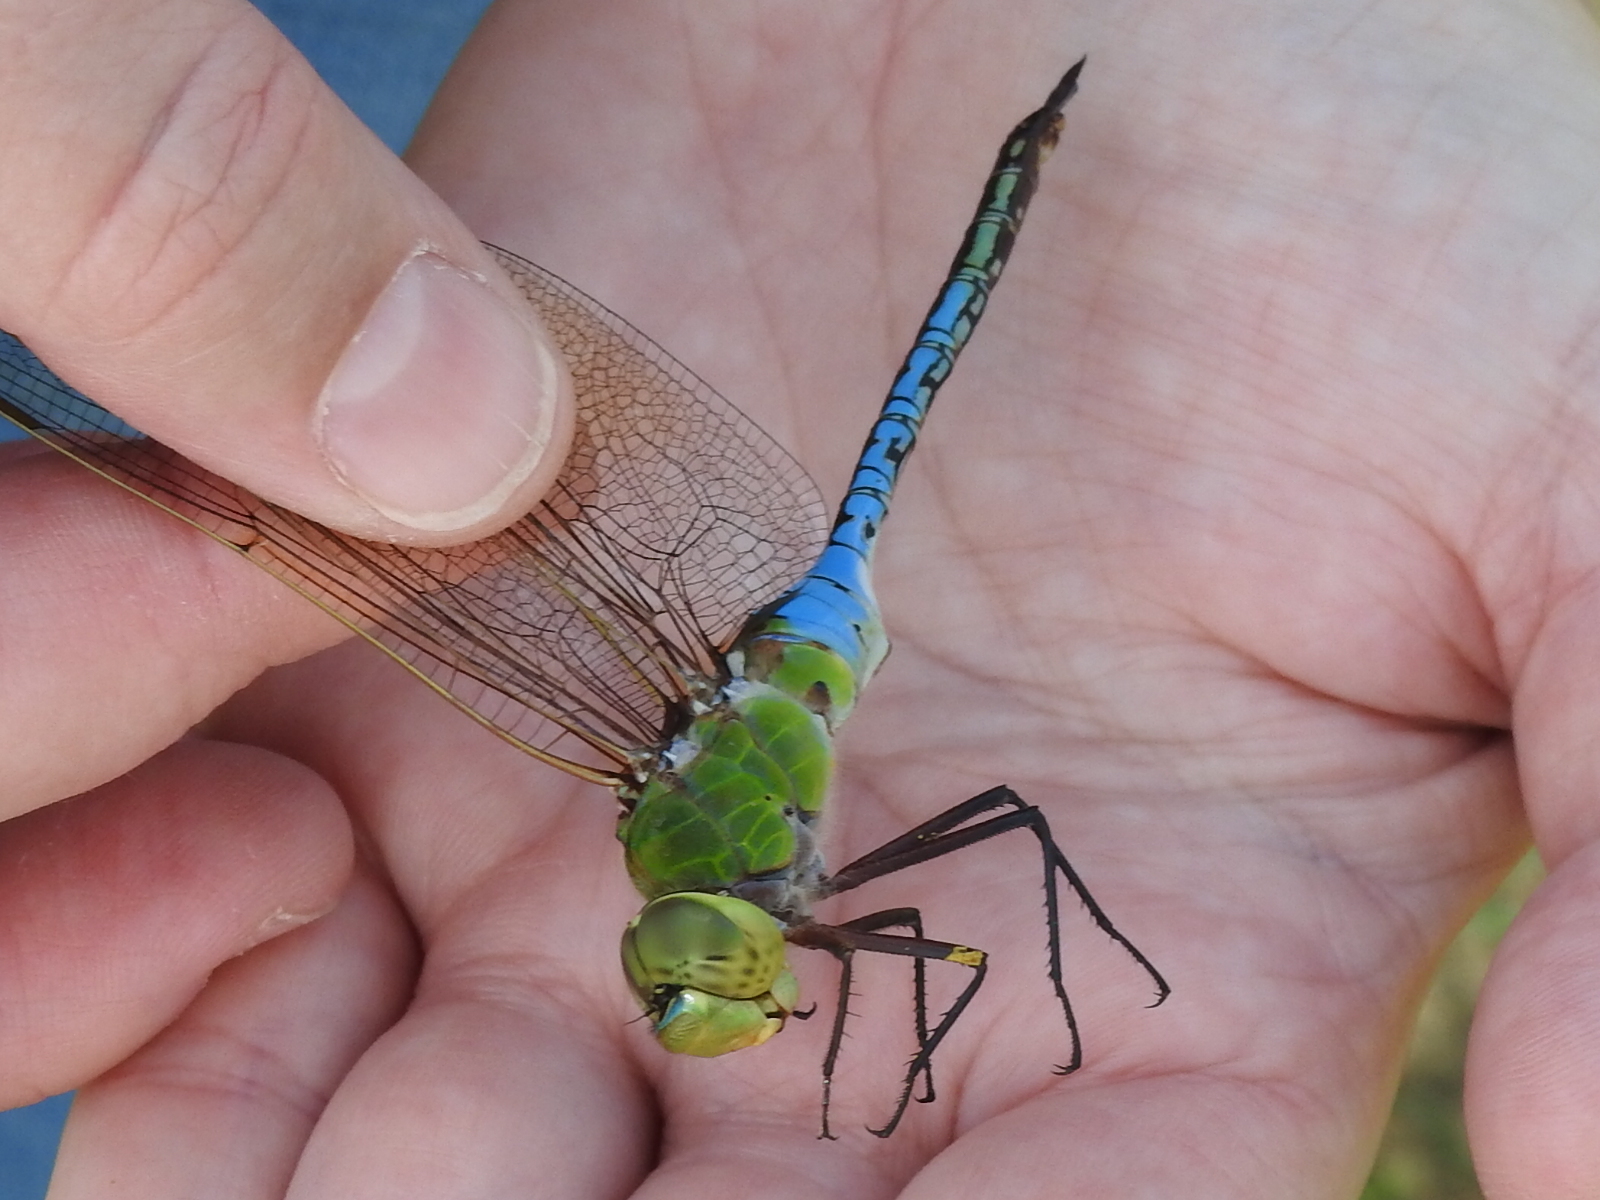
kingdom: Animalia
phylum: Arthropoda
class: Insecta
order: Odonata
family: Aeshnidae
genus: Anax
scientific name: Anax junius
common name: Common green darner
